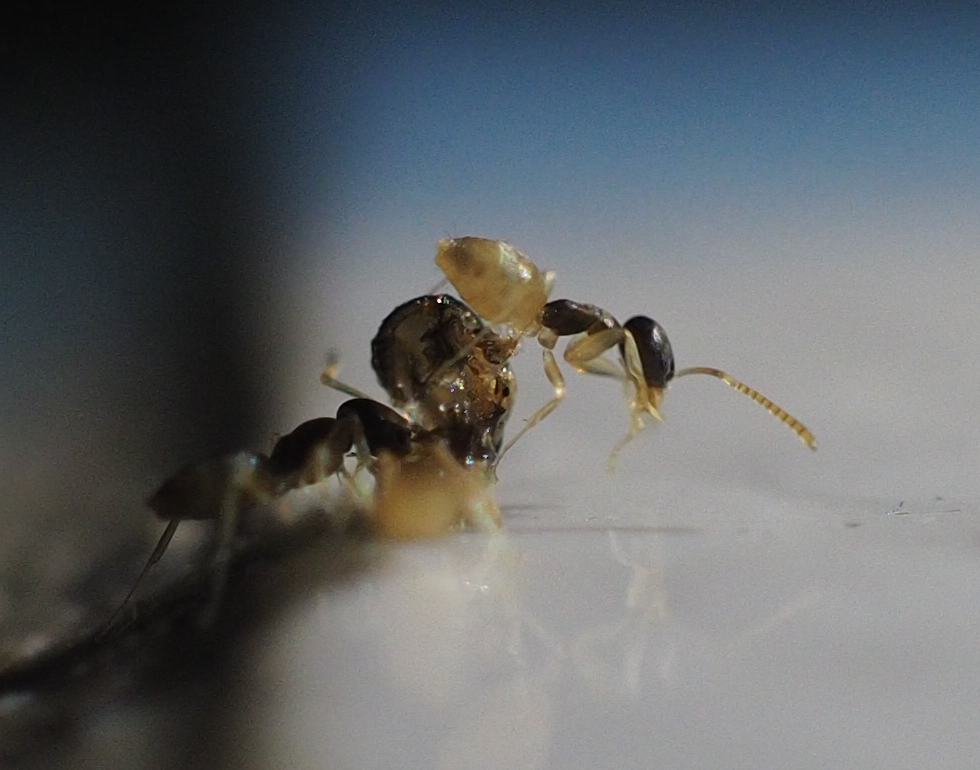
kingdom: Animalia
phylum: Arthropoda
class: Insecta
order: Hymenoptera
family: Formicidae
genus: Tapinoma
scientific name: Tapinoma melanocephalum
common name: Ghost ant
